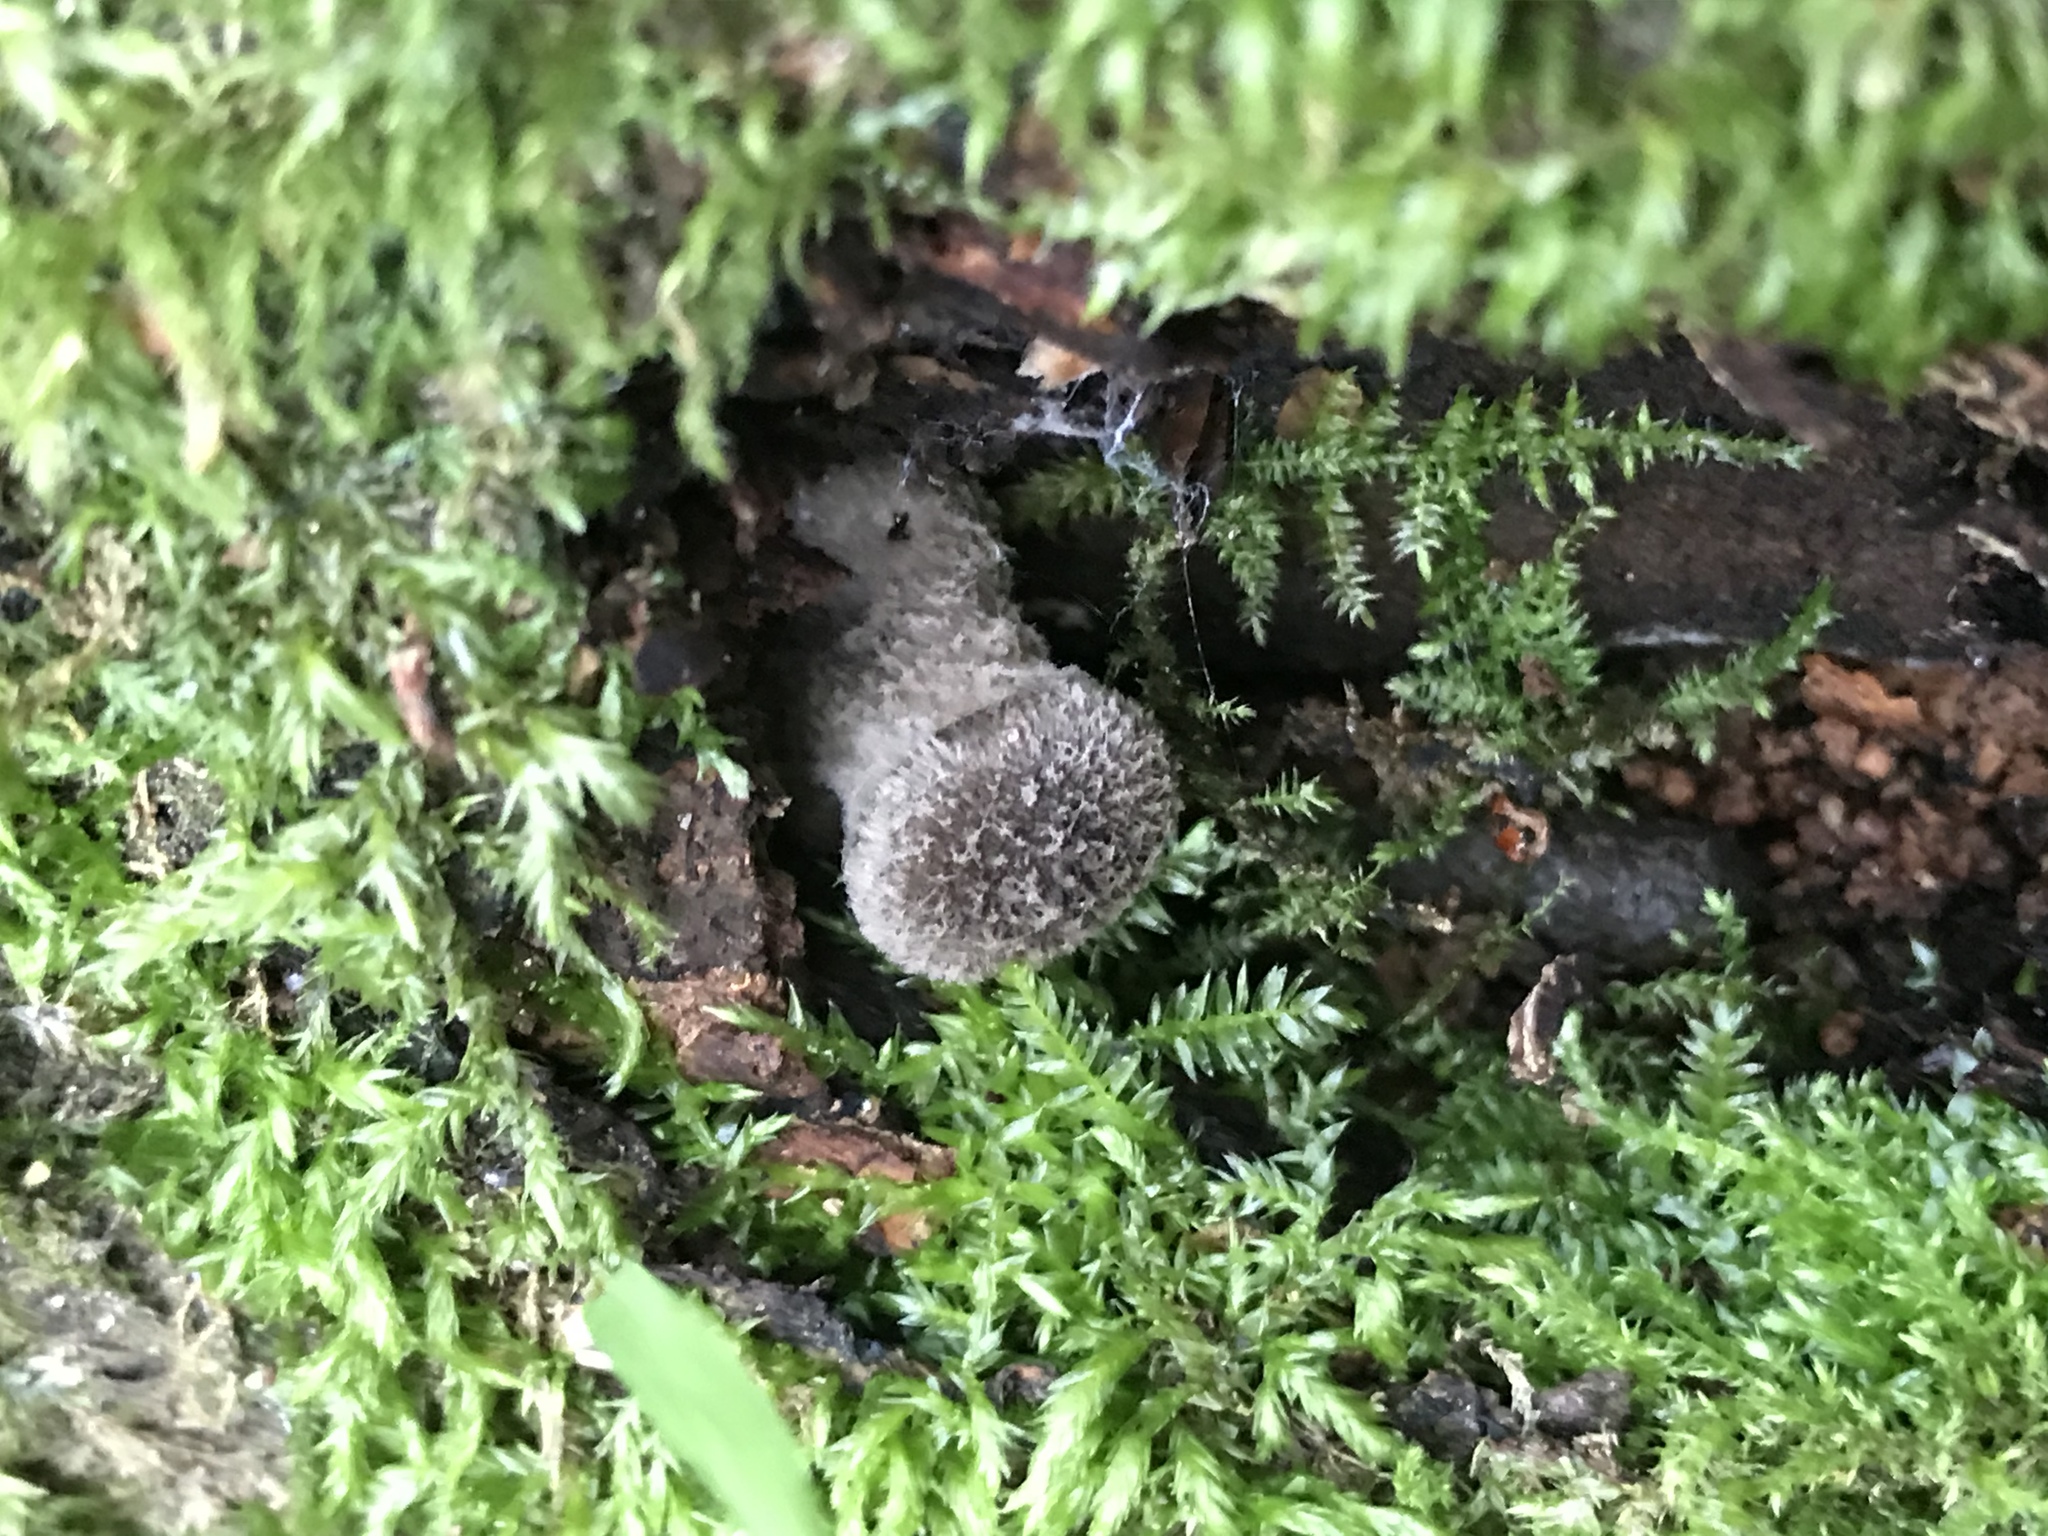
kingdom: Fungi
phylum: Basidiomycota
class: Agaricomycetes
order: Agaricales
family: Physalacriaceae
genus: Armillaria
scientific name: Armillaria sinapina
